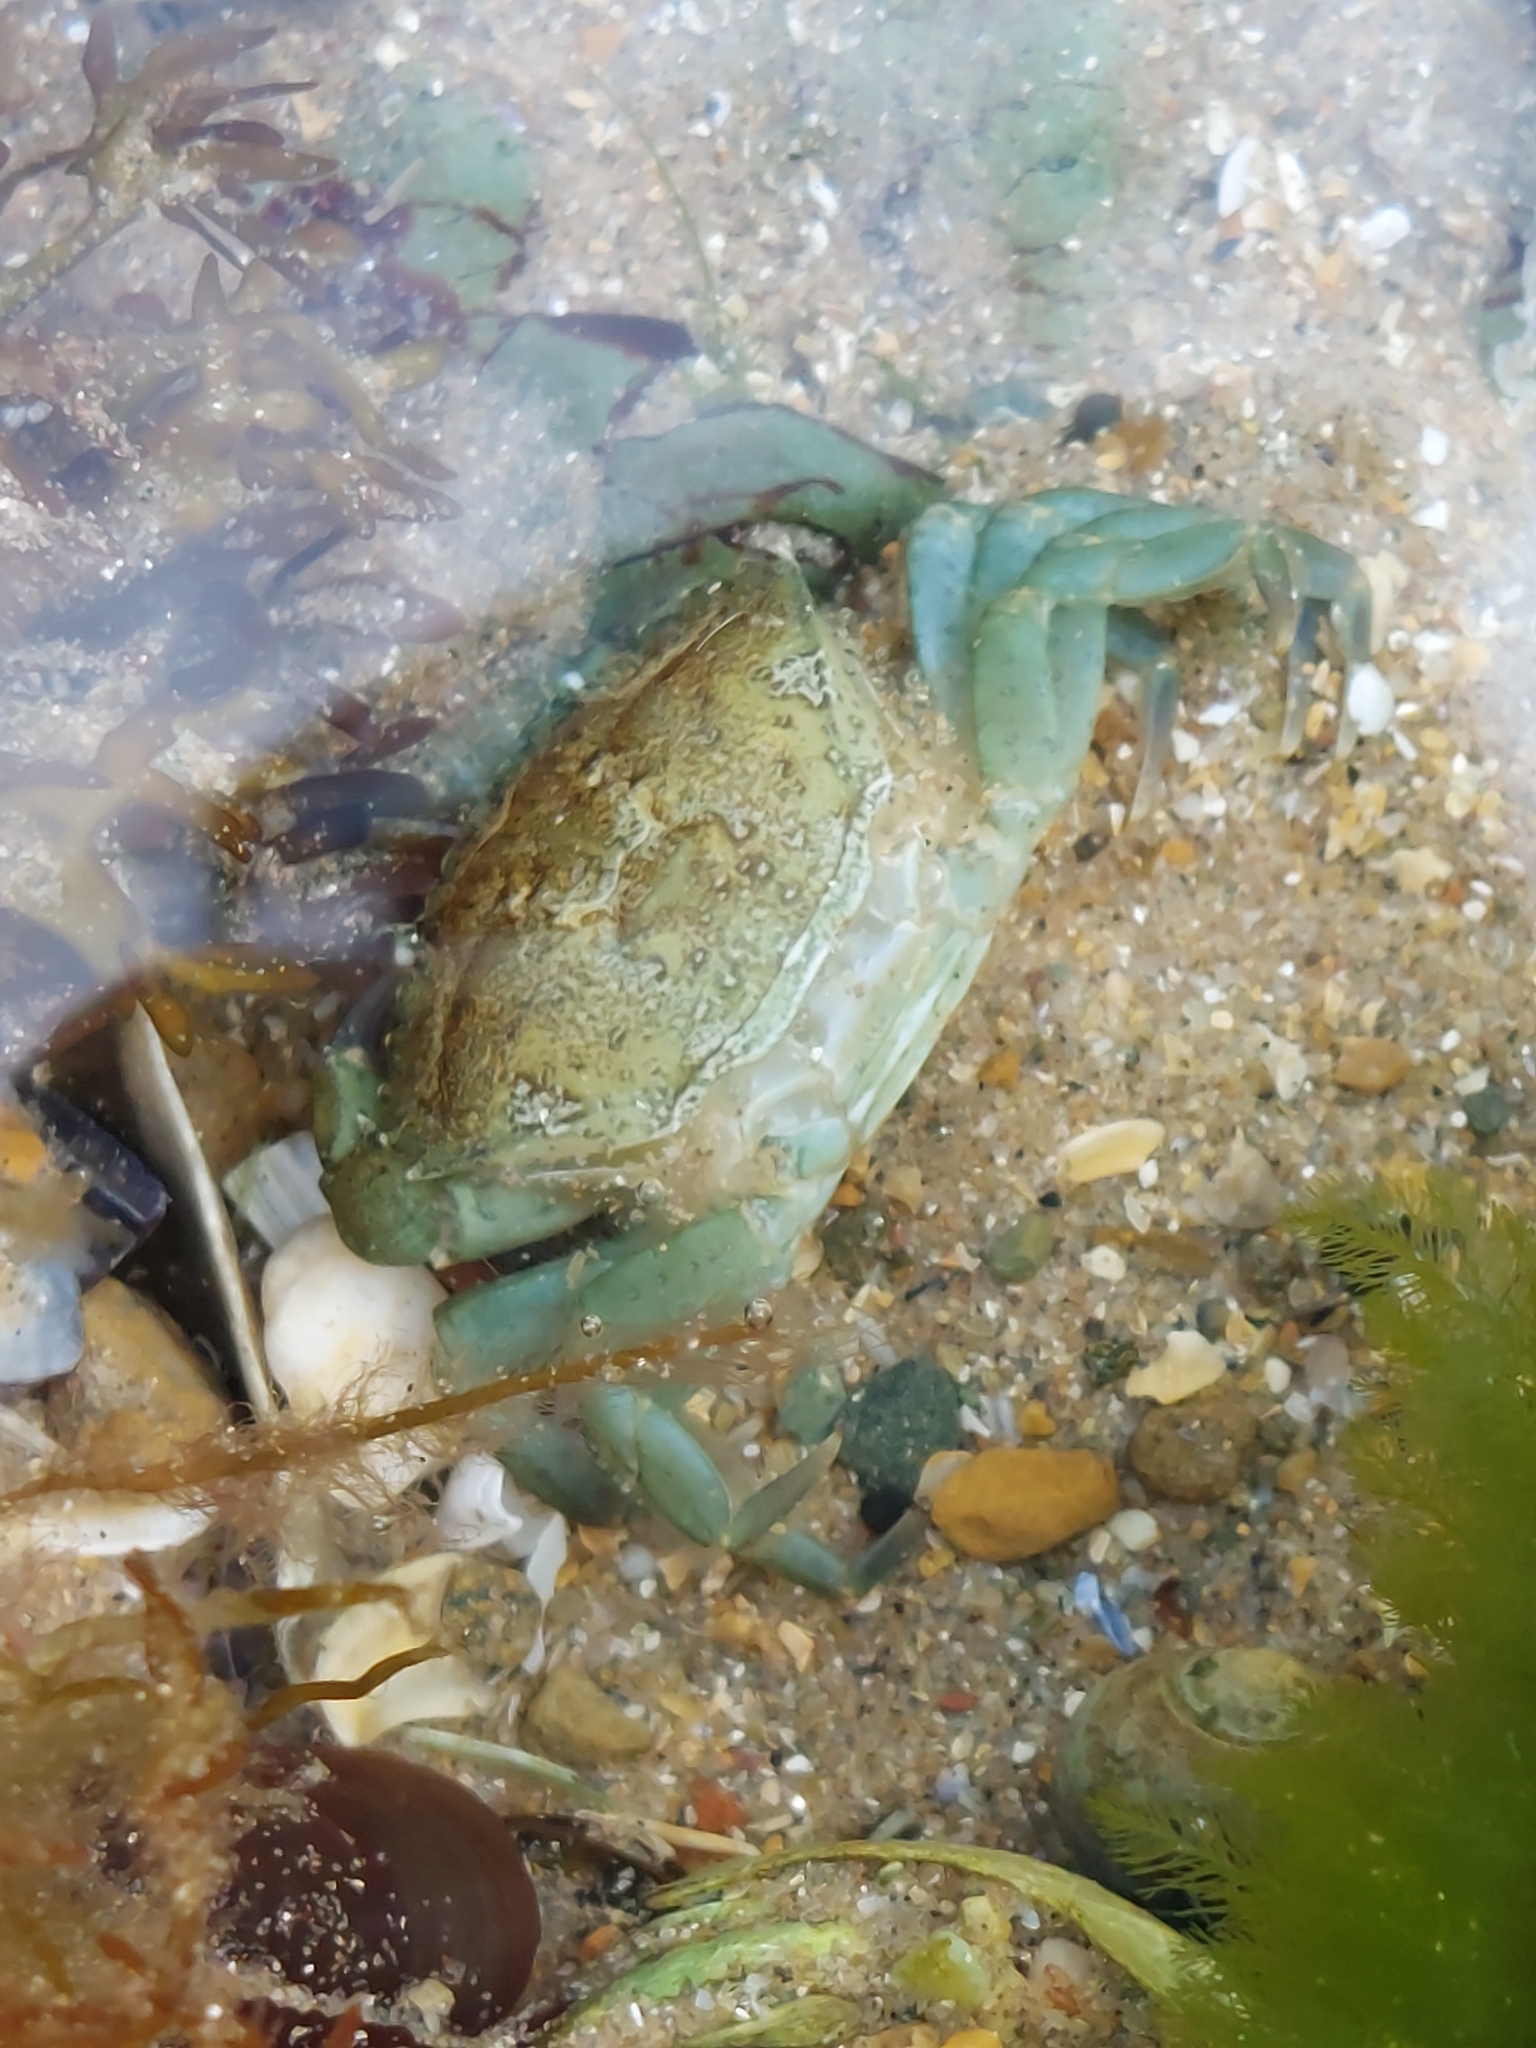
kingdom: Animalia
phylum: Arthropoda
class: Malacostraca
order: Decapoda
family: Carcinidae
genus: Carcinus
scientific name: Carcinus maenas
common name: European green crab
